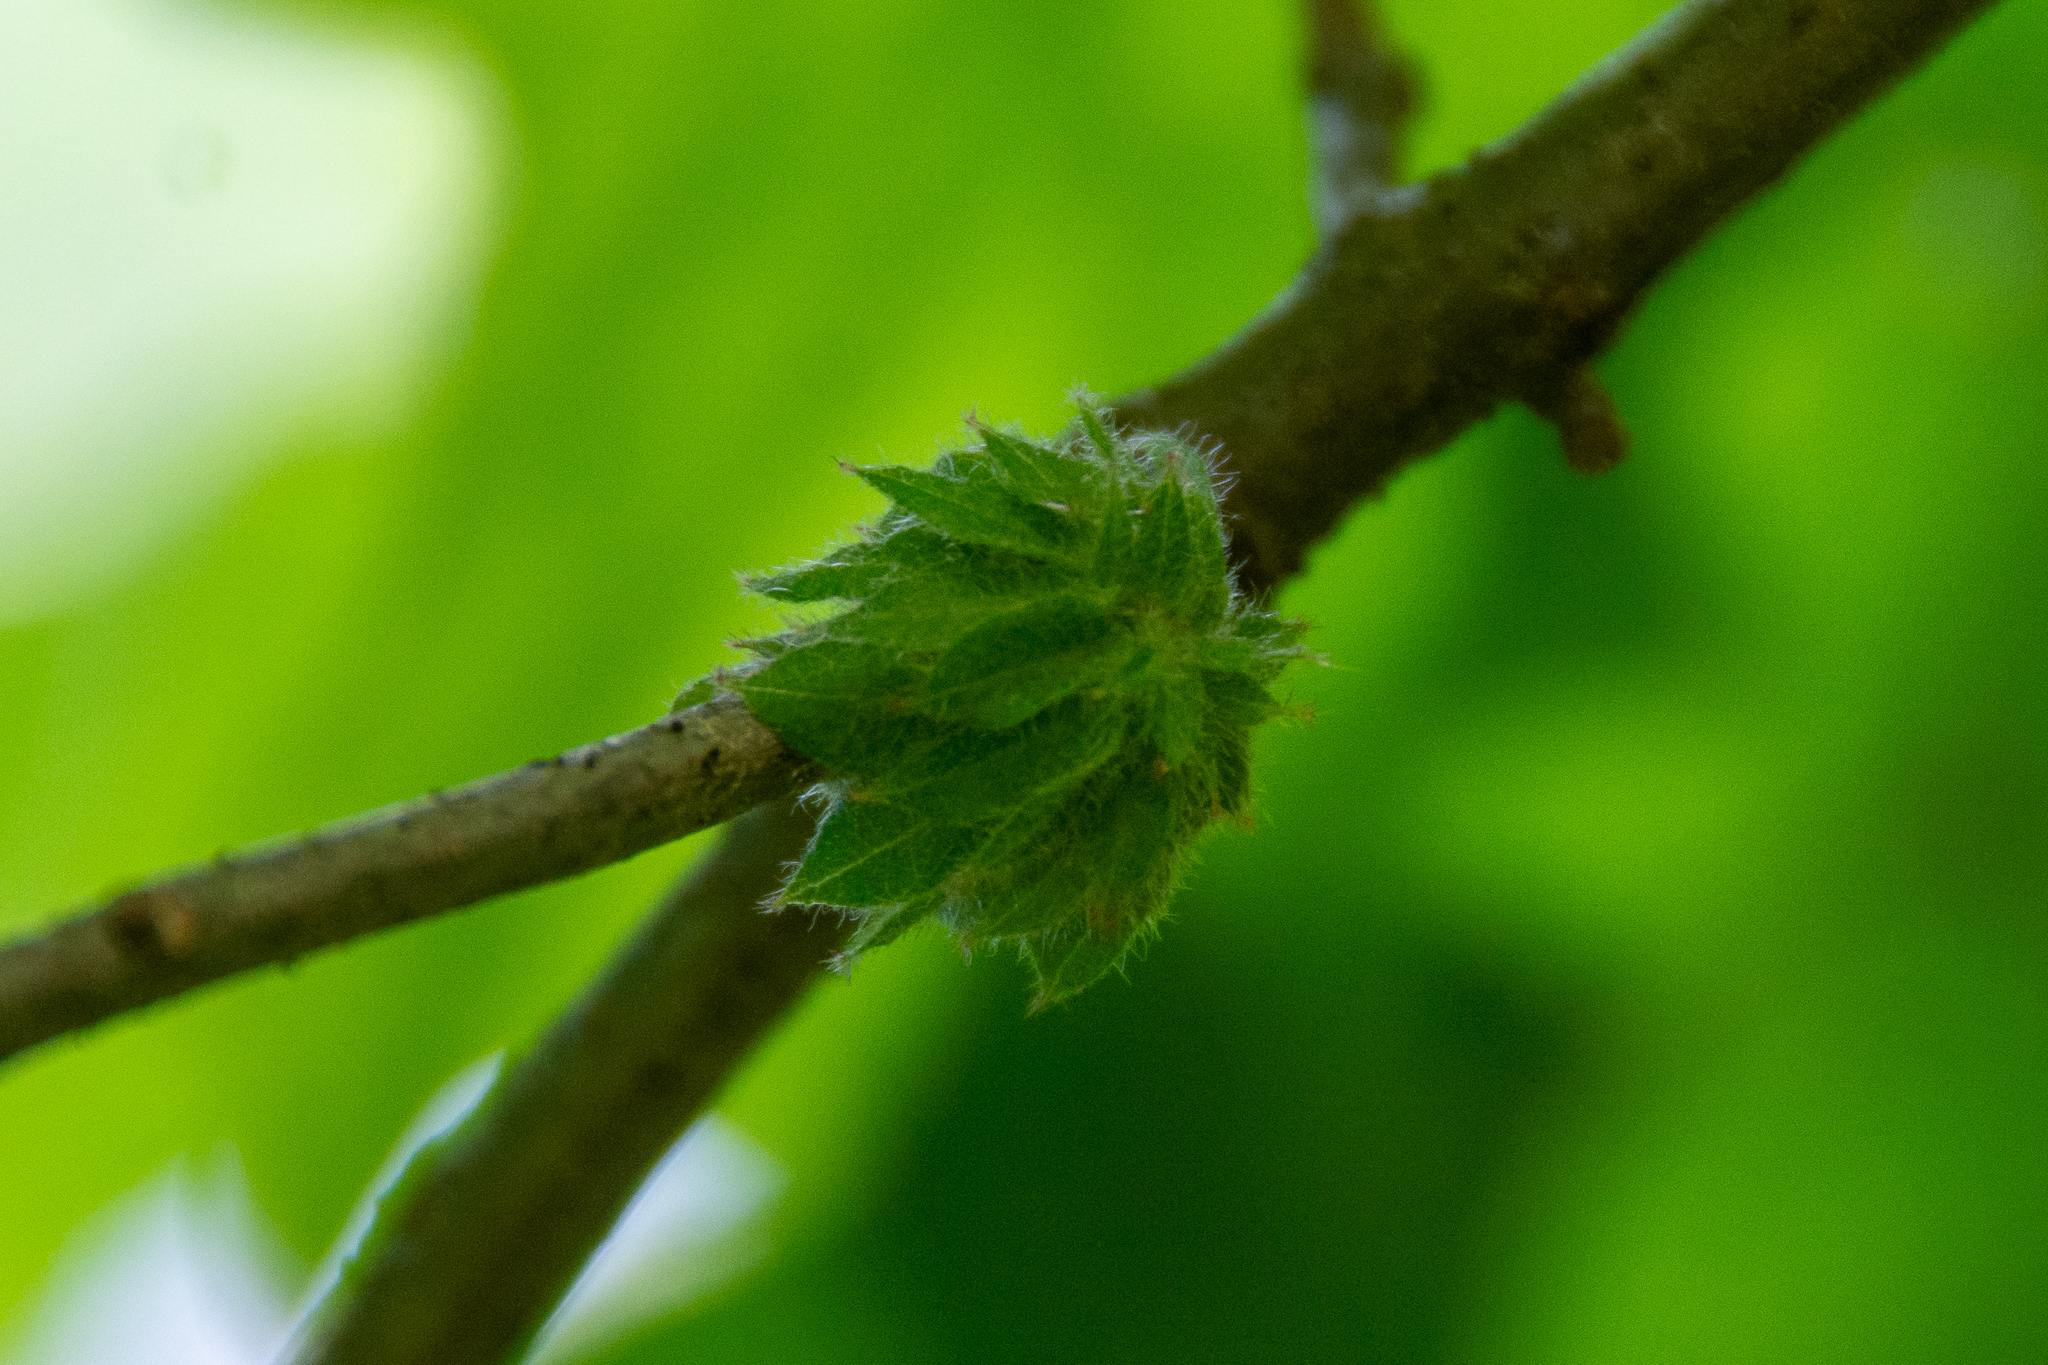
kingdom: Animalia
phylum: Arthropoda
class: Insecta
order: Hymenoptera
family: Cynipidae
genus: Dryocosmus
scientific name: Dryocosmus
